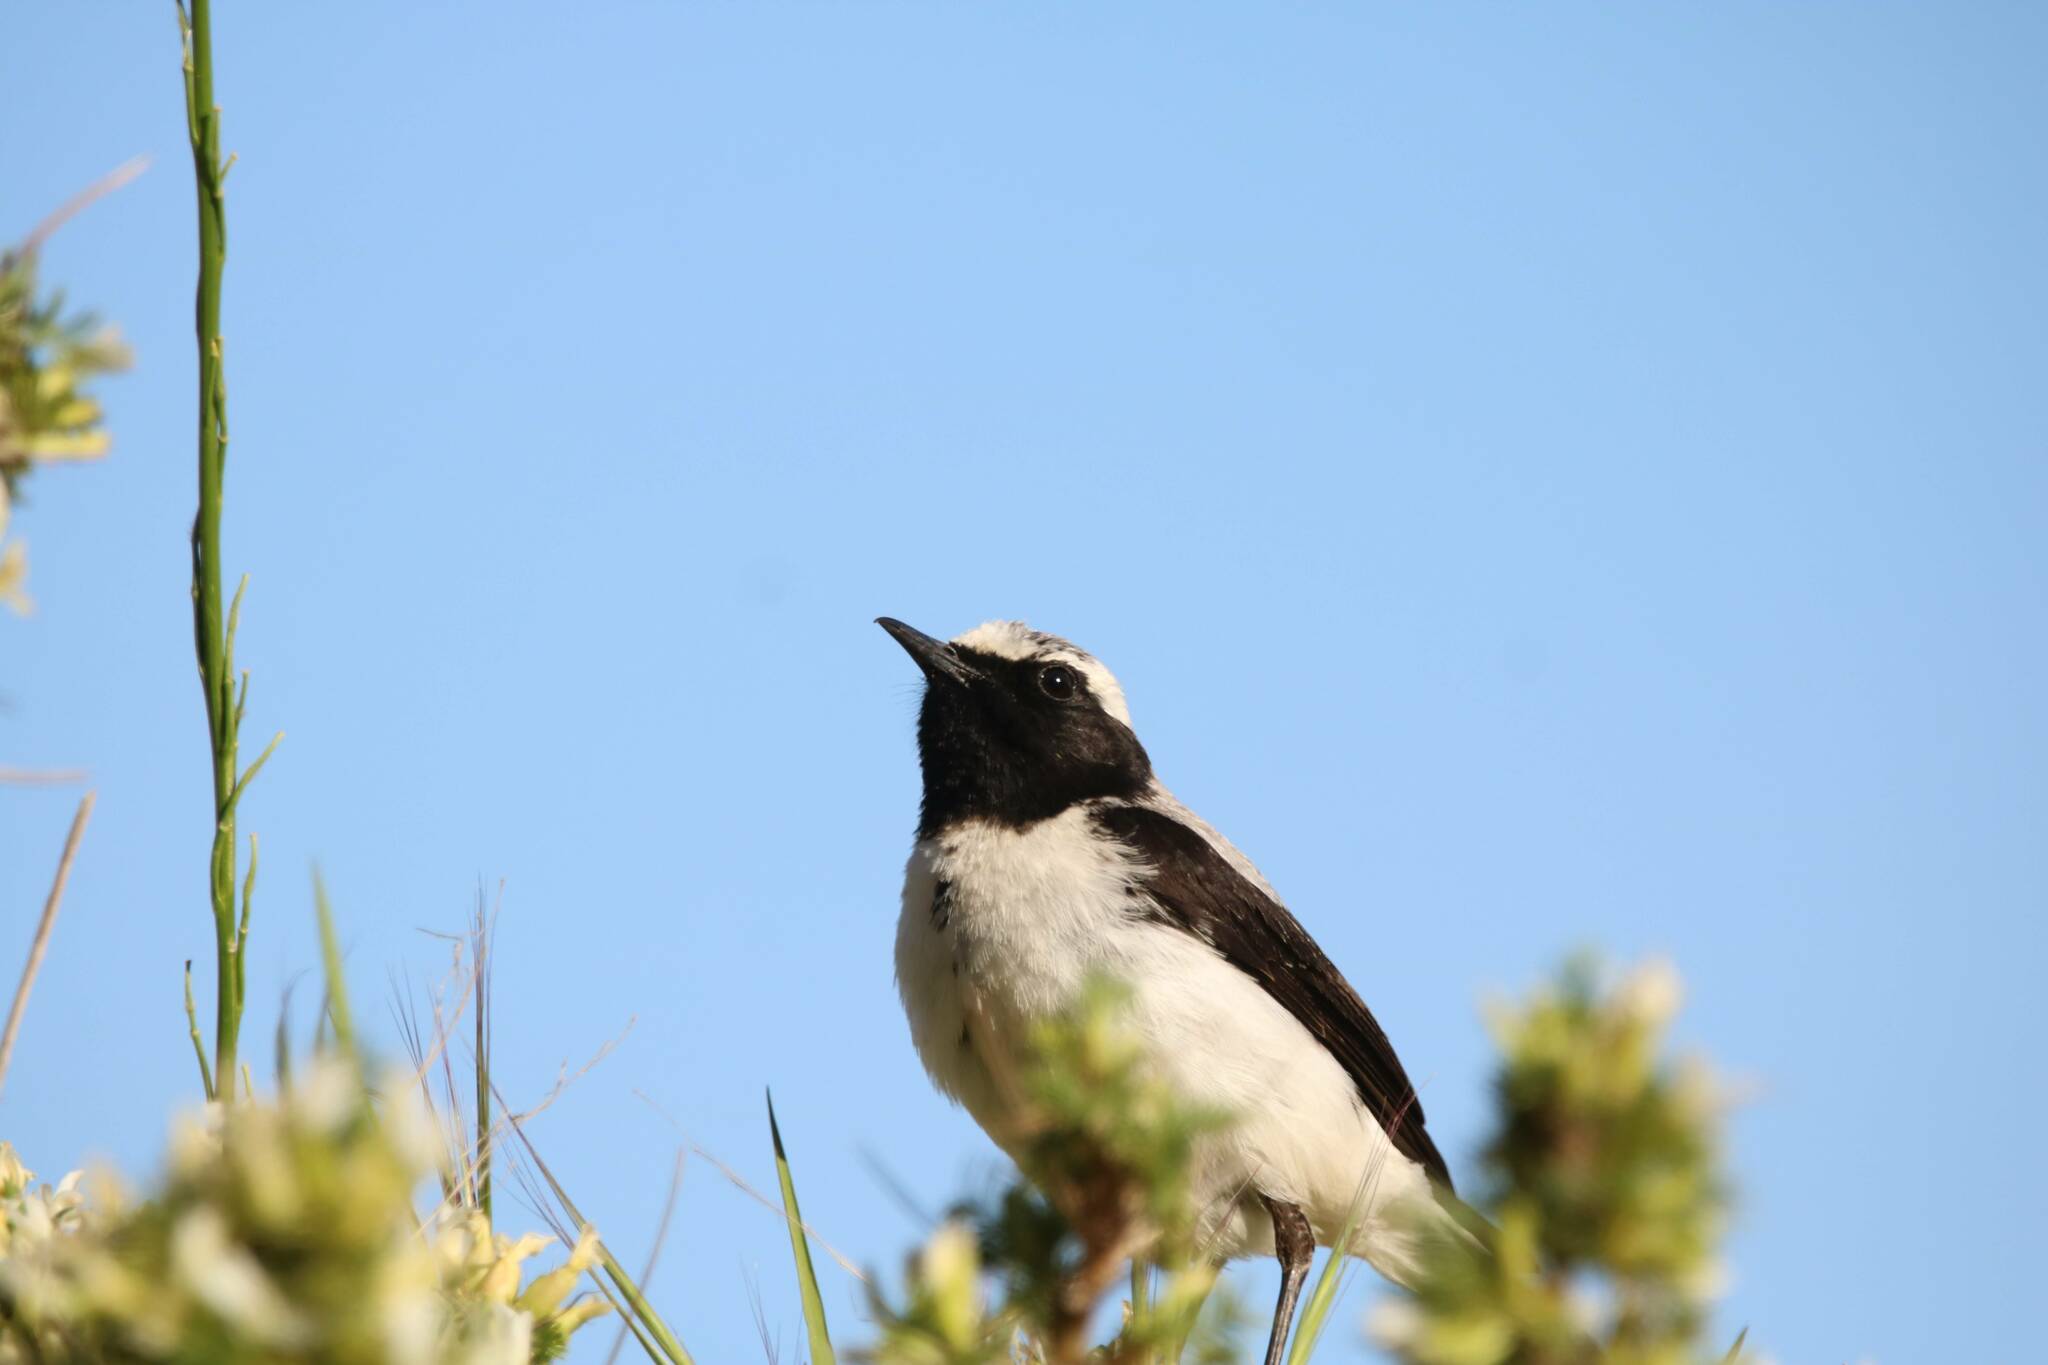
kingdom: Animalia
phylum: Chordata
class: Aves
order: Passeriformes
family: Muscicapidae
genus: Oenanthe
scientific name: Oenanthe oenanthe
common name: Northern wheatear
